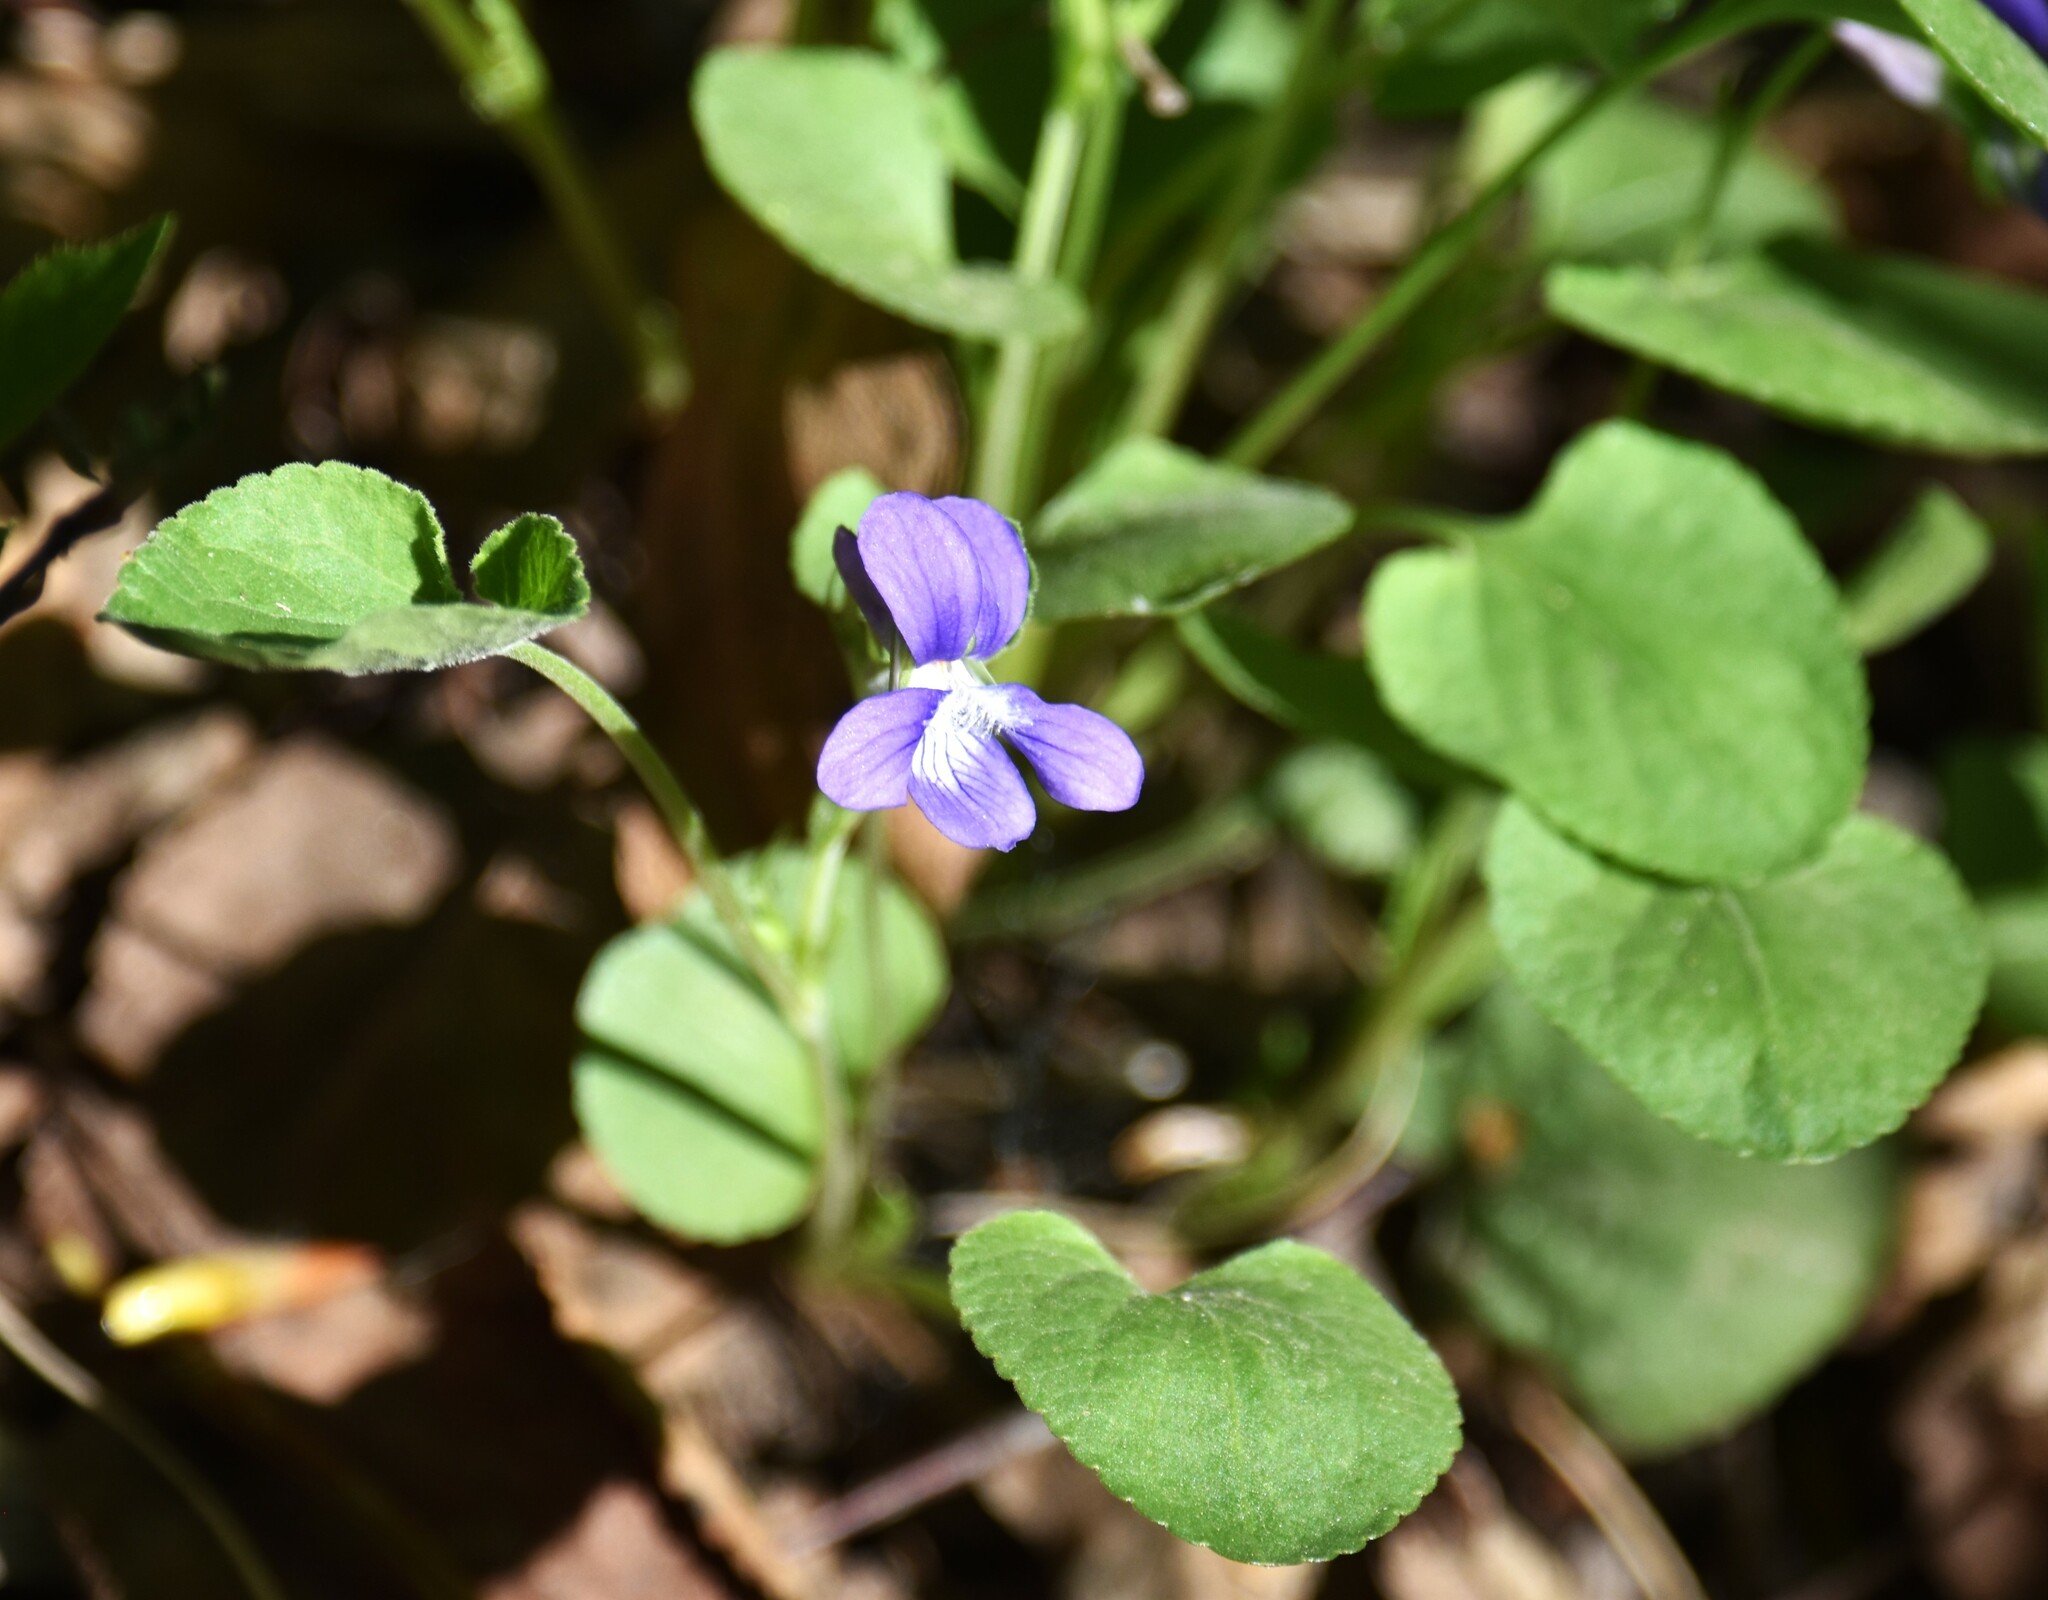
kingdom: Plantae
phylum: Tracheophyta
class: Magnoliopsida
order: Malpighiales
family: Violaceae
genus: Viola
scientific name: Viola adunca
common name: Sand violet
